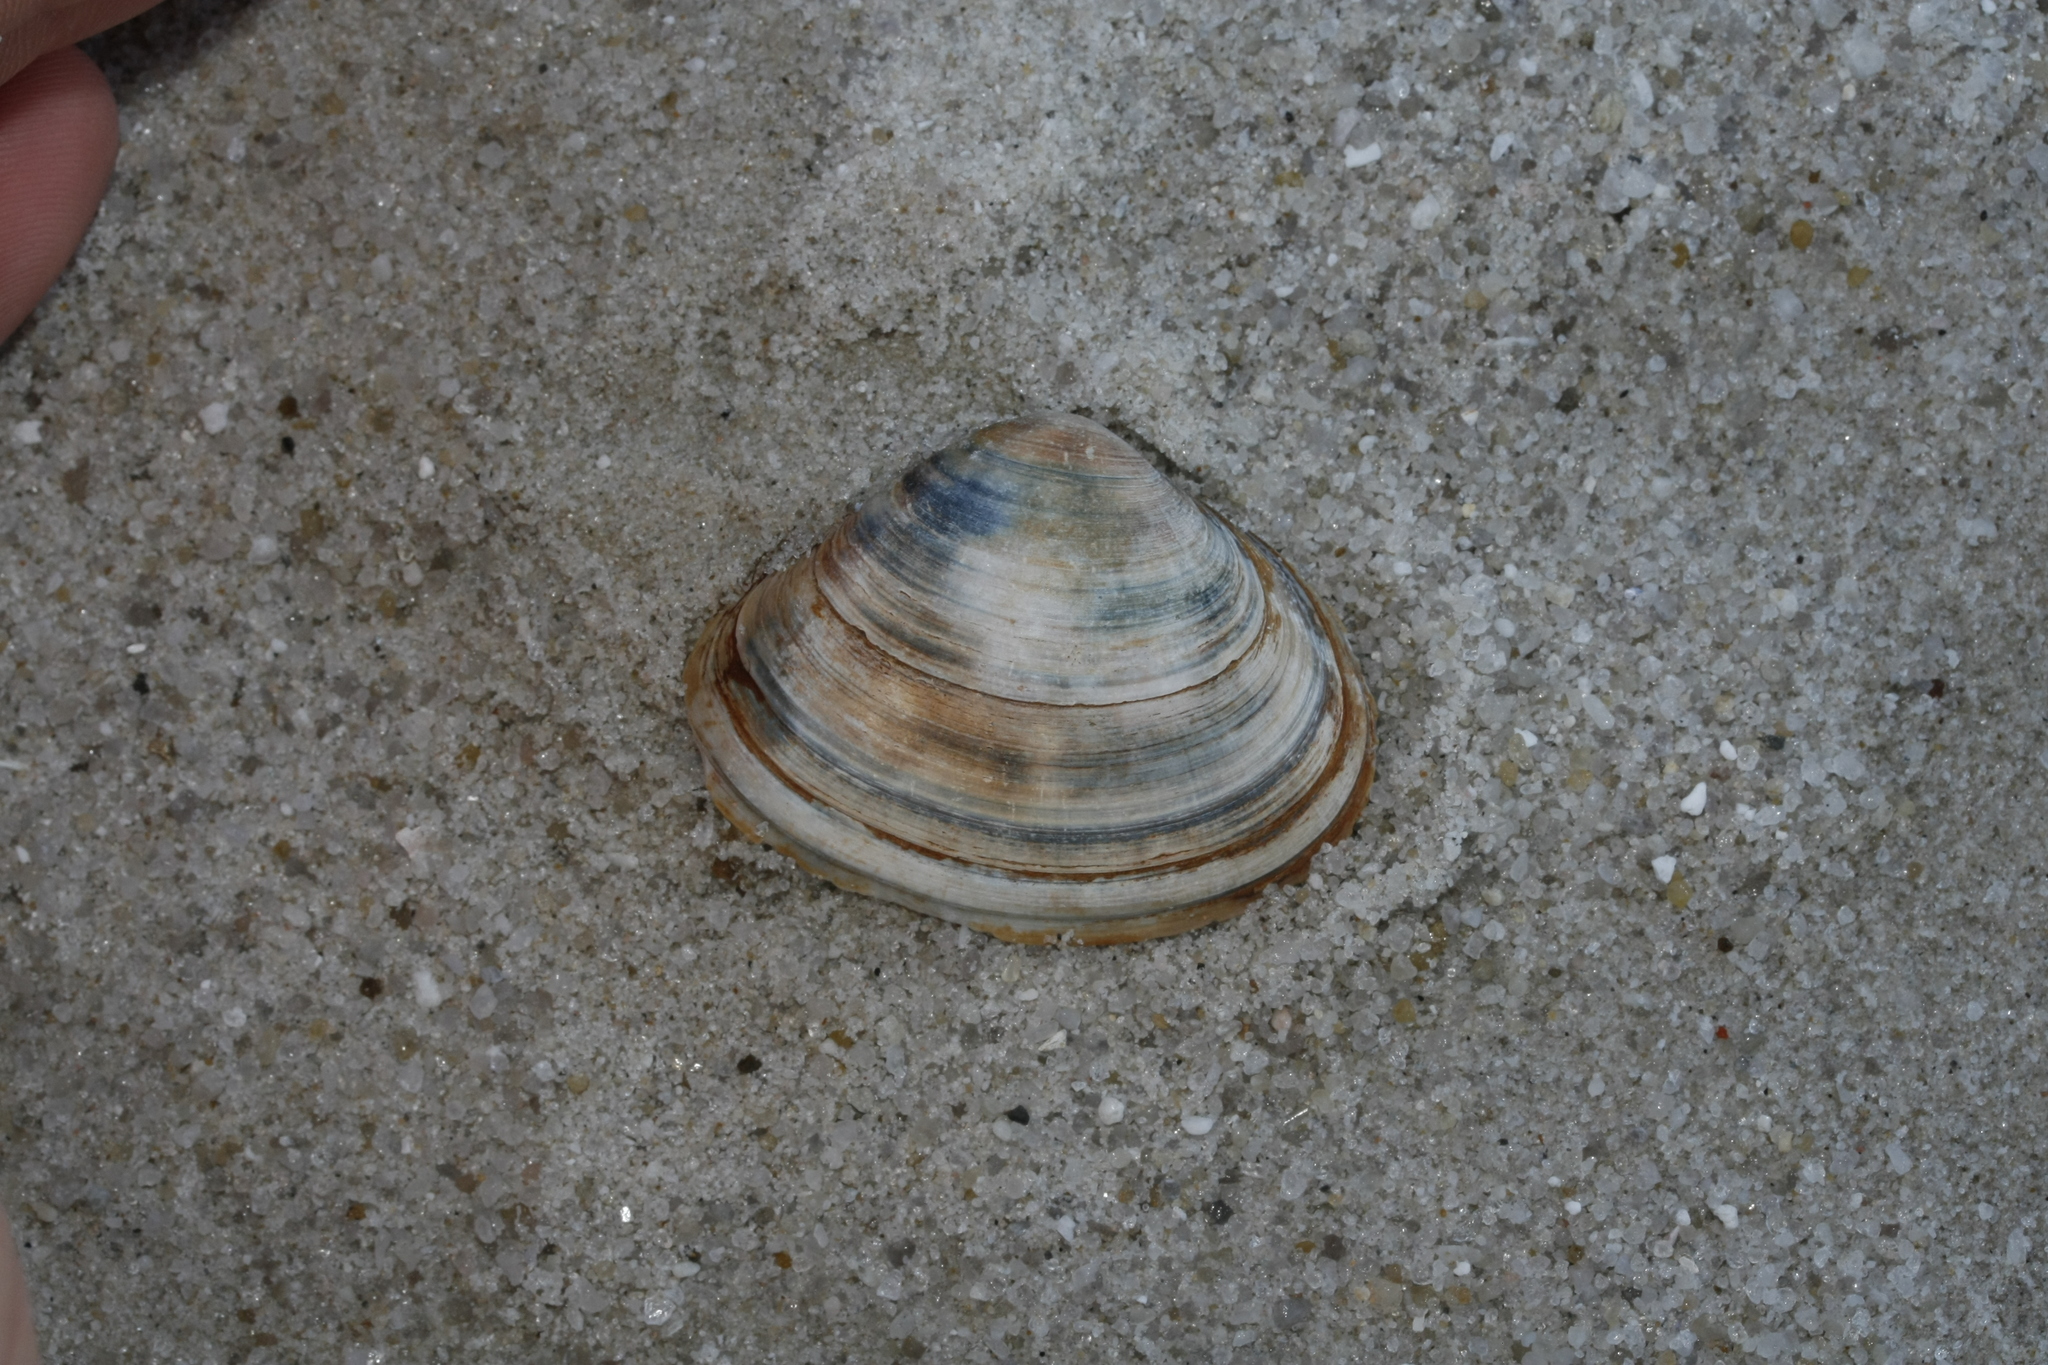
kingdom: Animalia
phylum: Mollusca
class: Bivalvia
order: Venerida
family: Mactridae
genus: Spisula
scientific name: Spisula solida
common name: Thick trough shell
